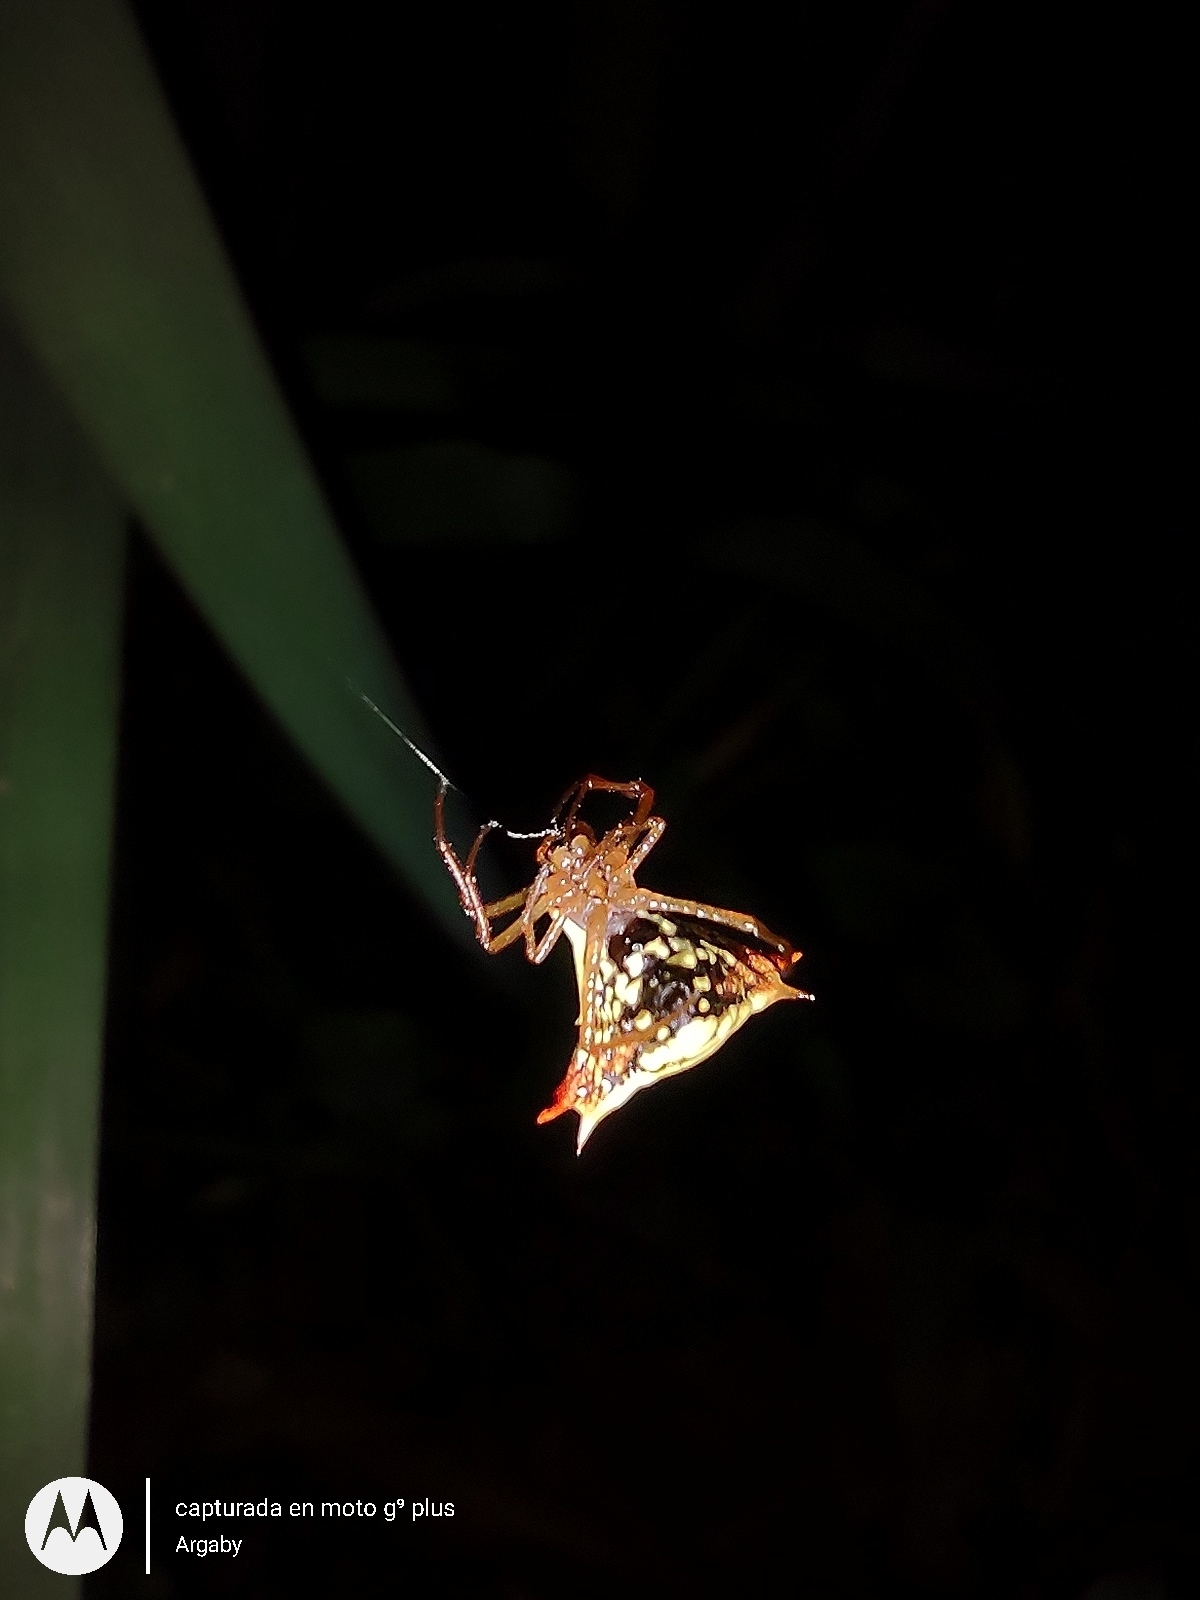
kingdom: Animalia
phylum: Arthropoda
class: Arachnida
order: Araneae
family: Araneidae
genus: Micrathena
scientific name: Micrathena furcata
